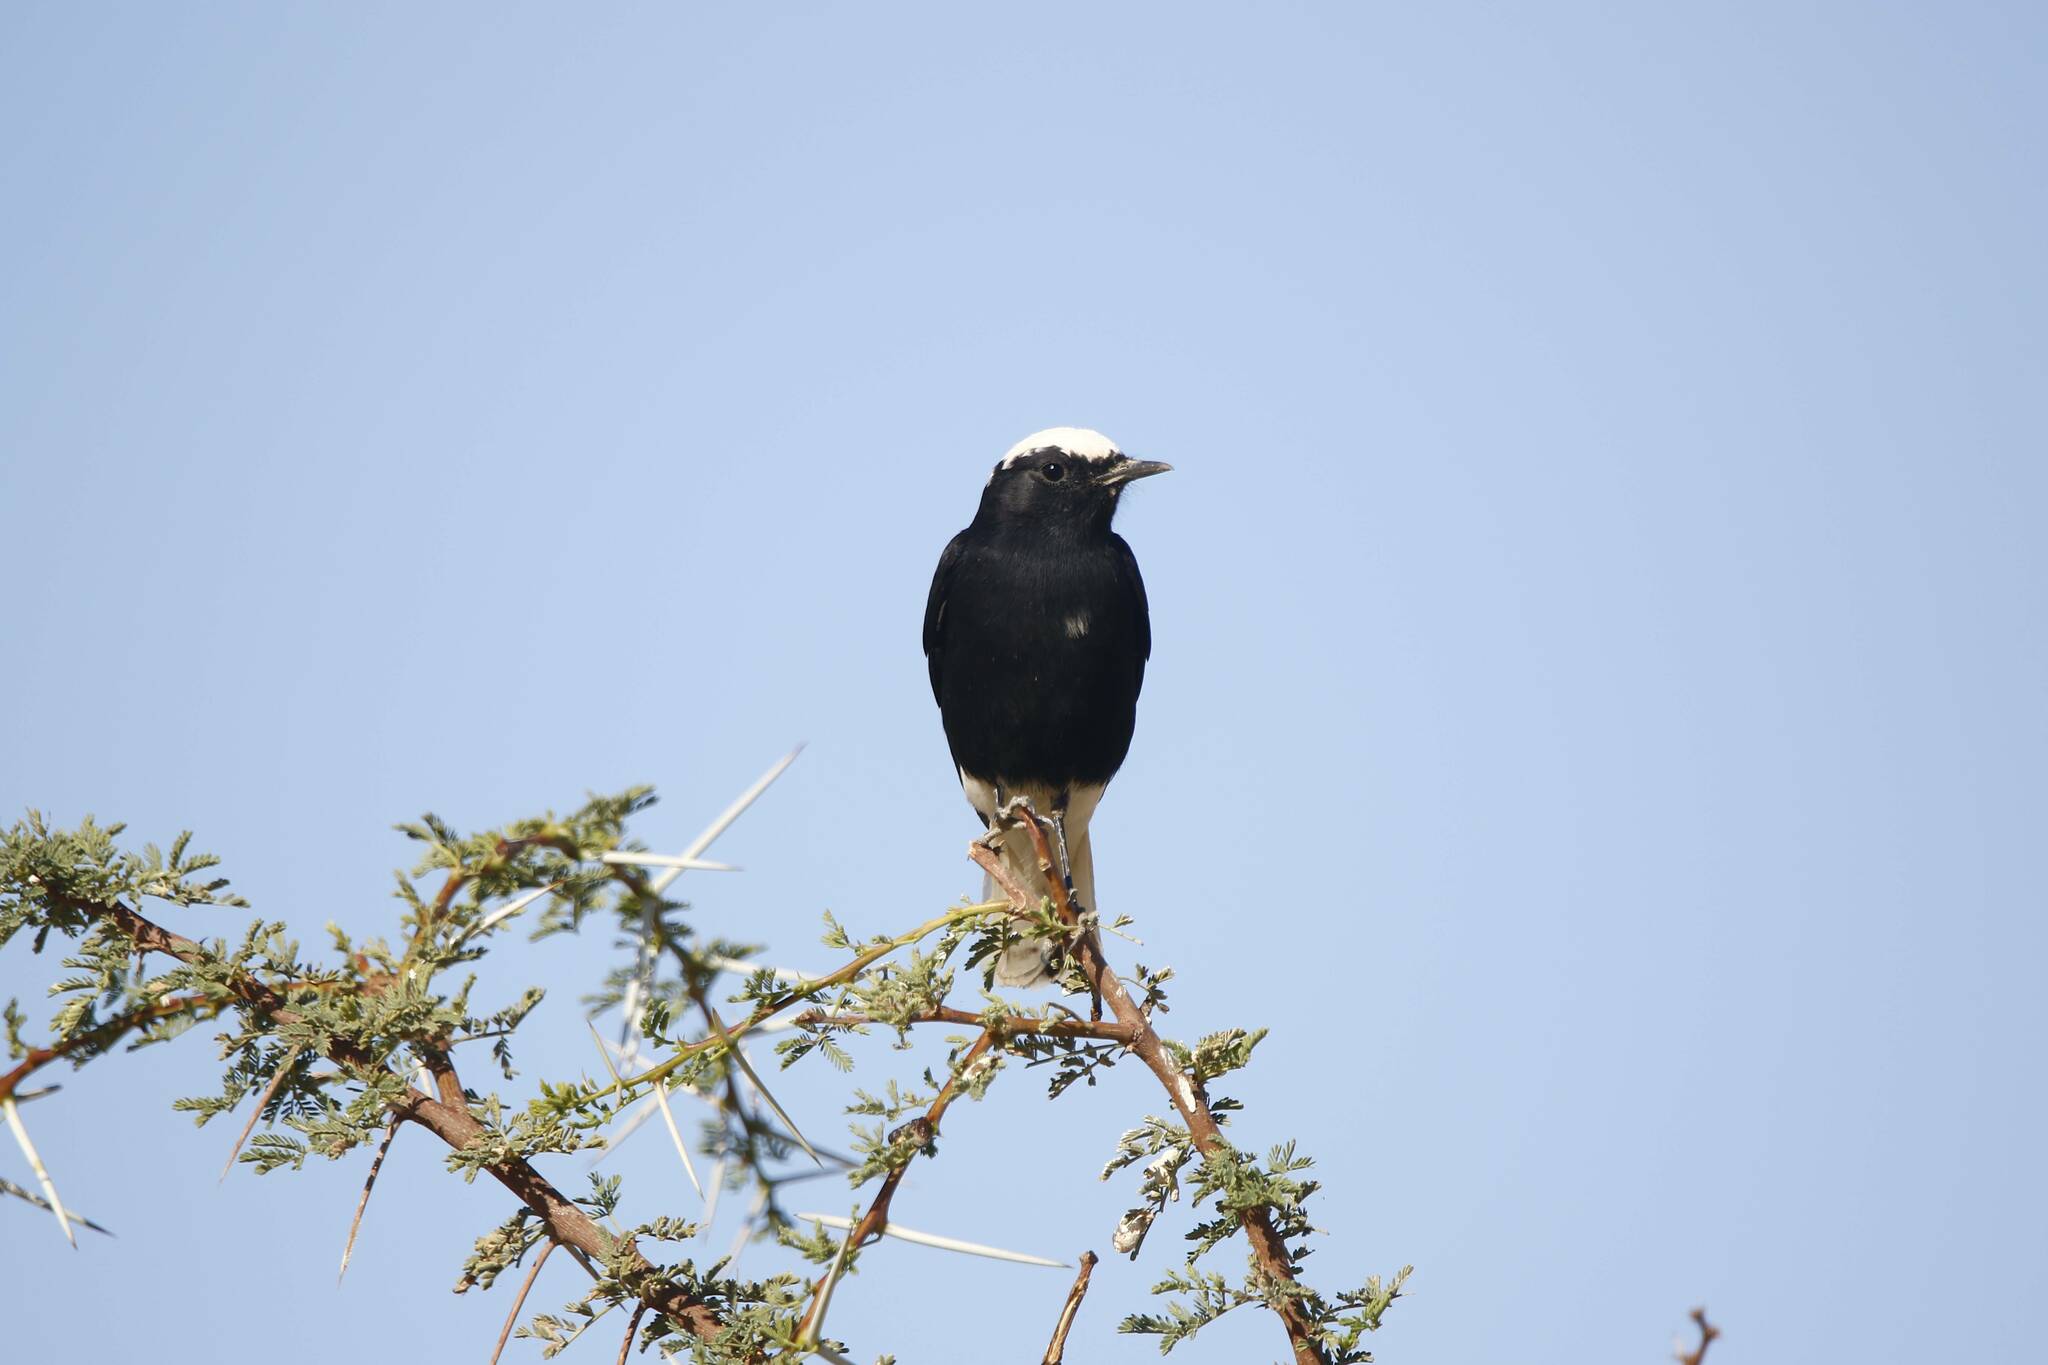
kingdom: Animalia
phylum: Chordata
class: Aves
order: Passeriformes
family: Muscicapidae
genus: Oenanthe
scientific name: Oenanthe leucopyga
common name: White-crowned wheatear
